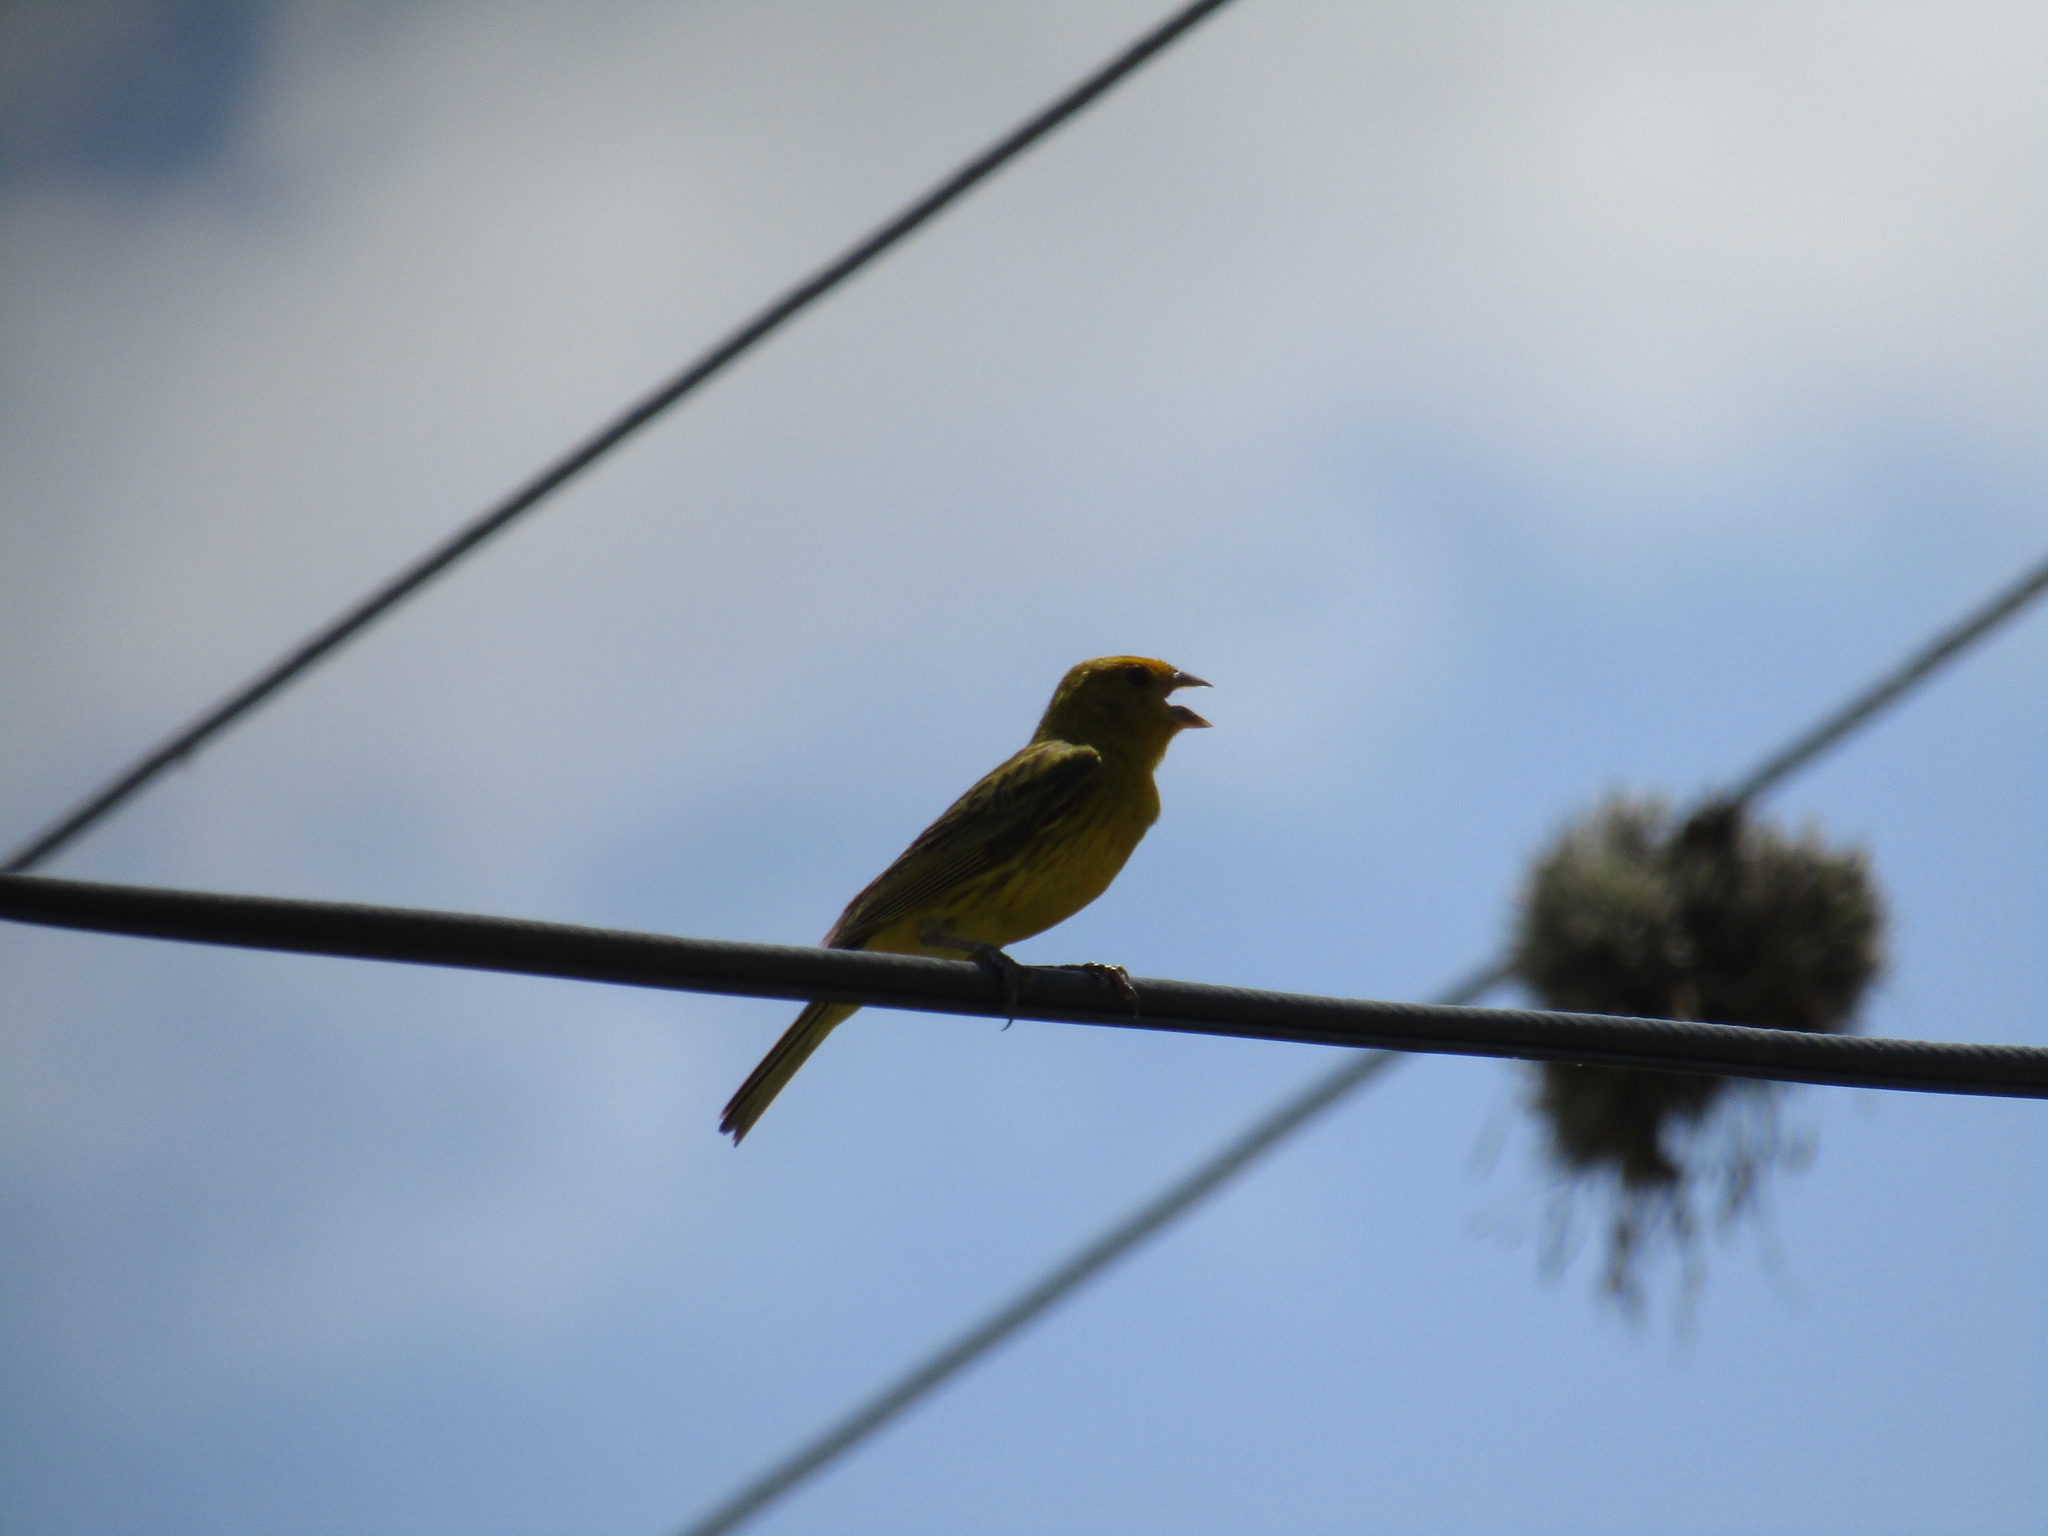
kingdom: Animalia
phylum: Chordata
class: Aves
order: Passeriformes
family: Thraupidae
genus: Sicalis
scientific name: Sicalis flaveola
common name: Saffron finch
